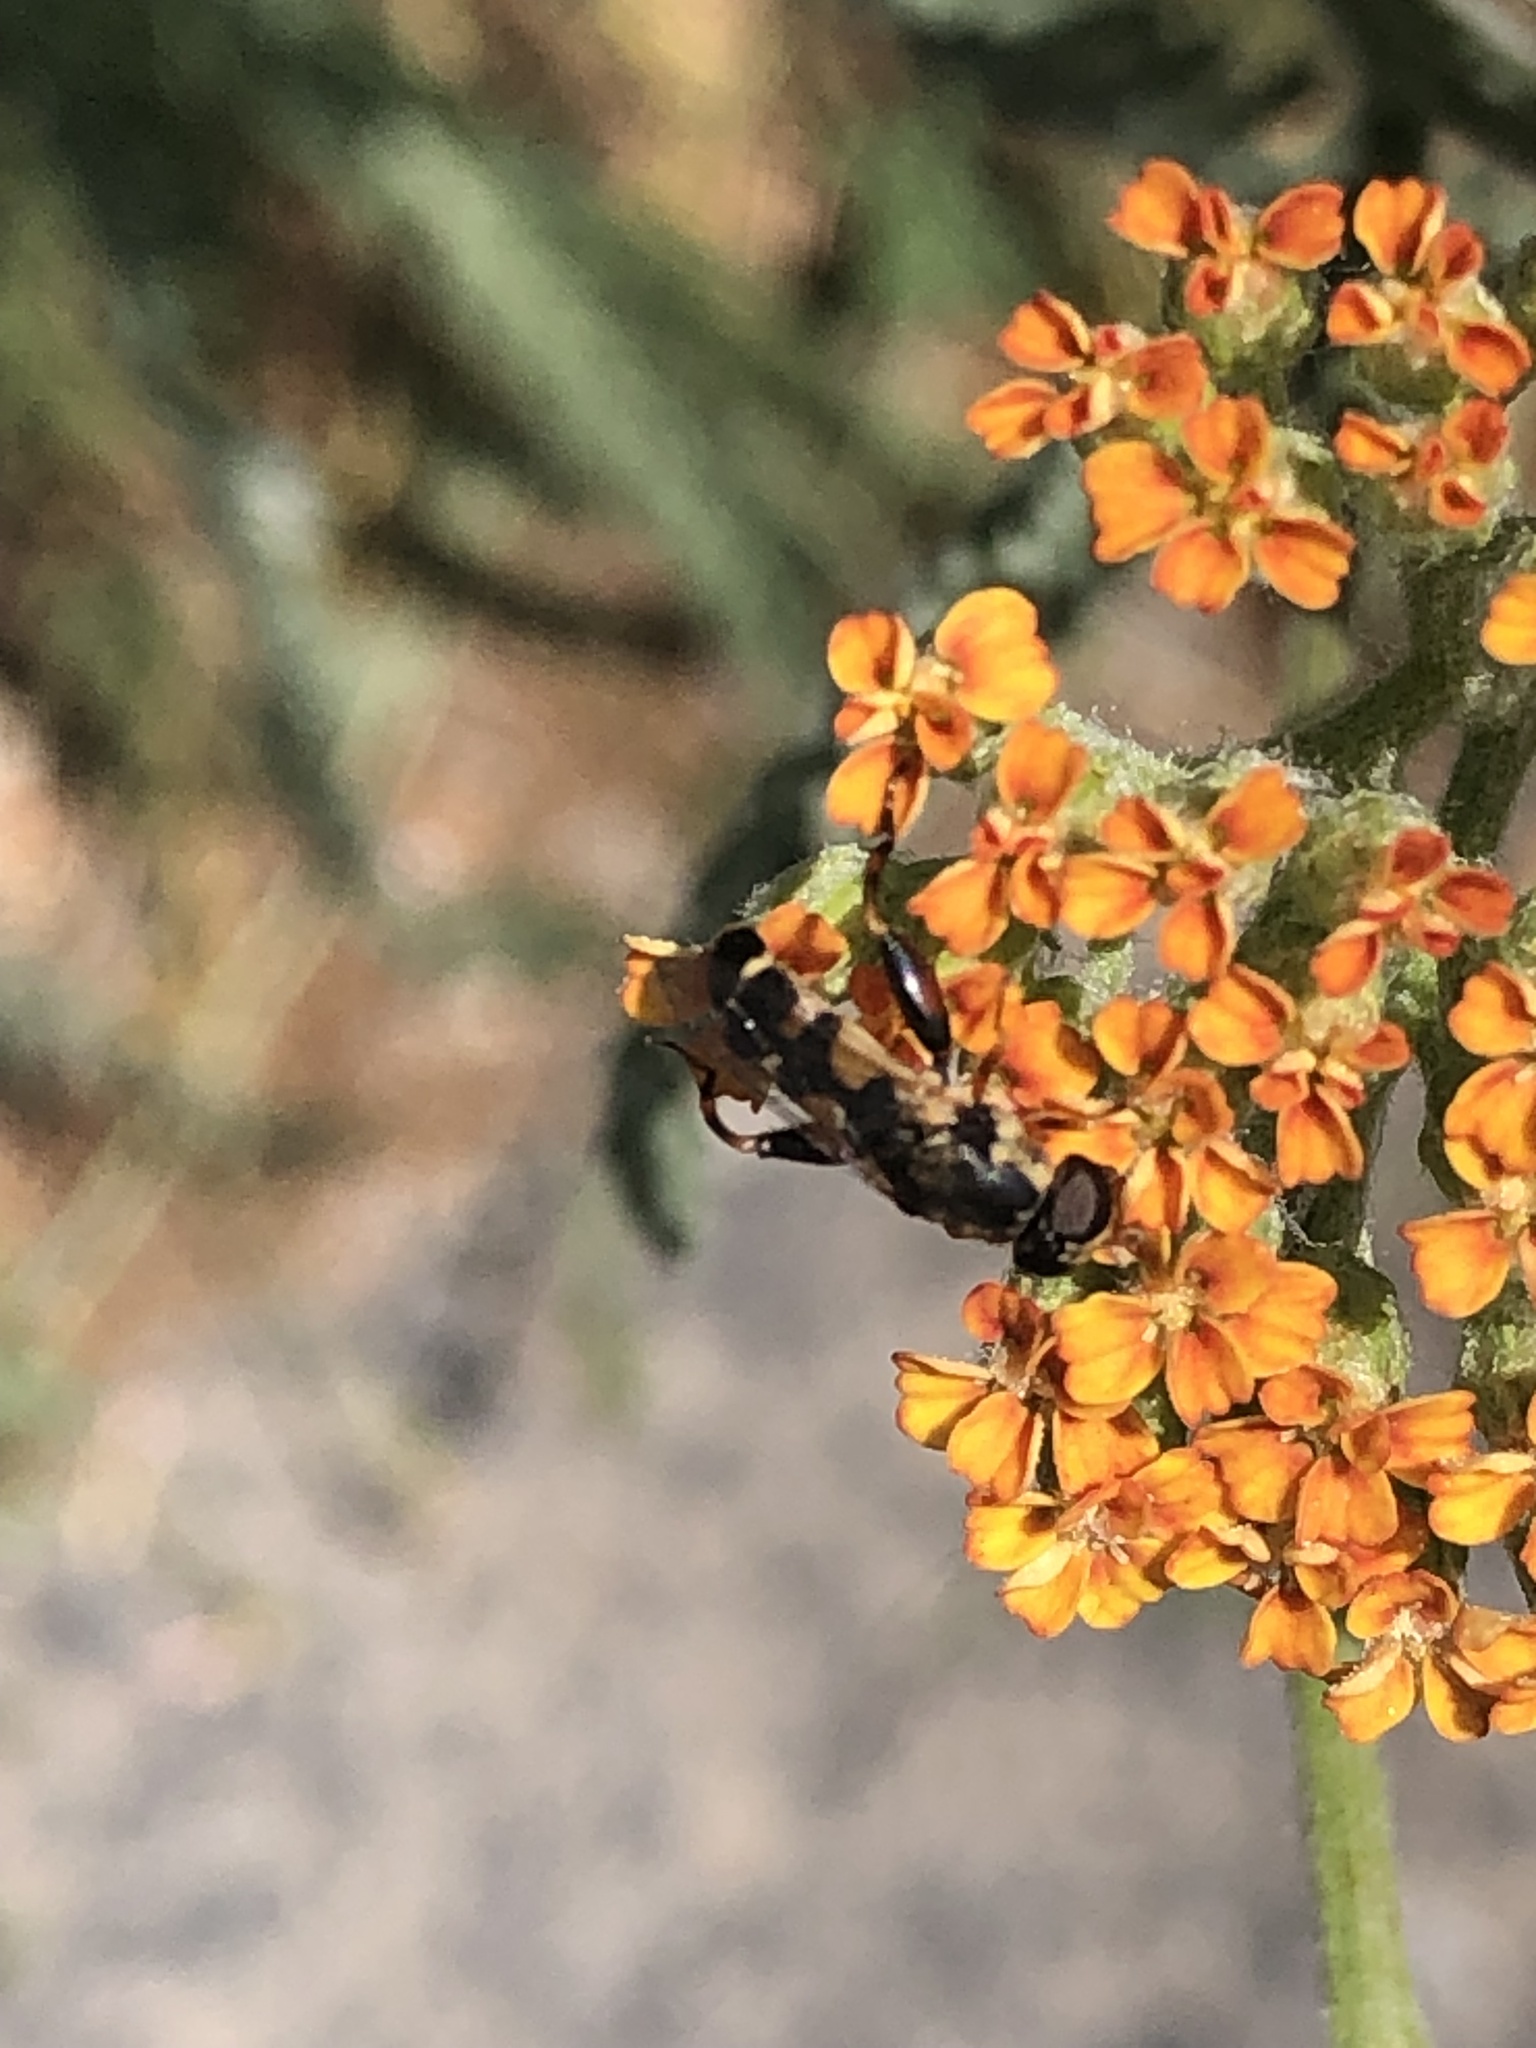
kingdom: Animalia
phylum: Arthropoda
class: Insecta
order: Diptera
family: Syrphidae
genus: Syritta
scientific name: Syritta pipiens
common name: Hover fly
